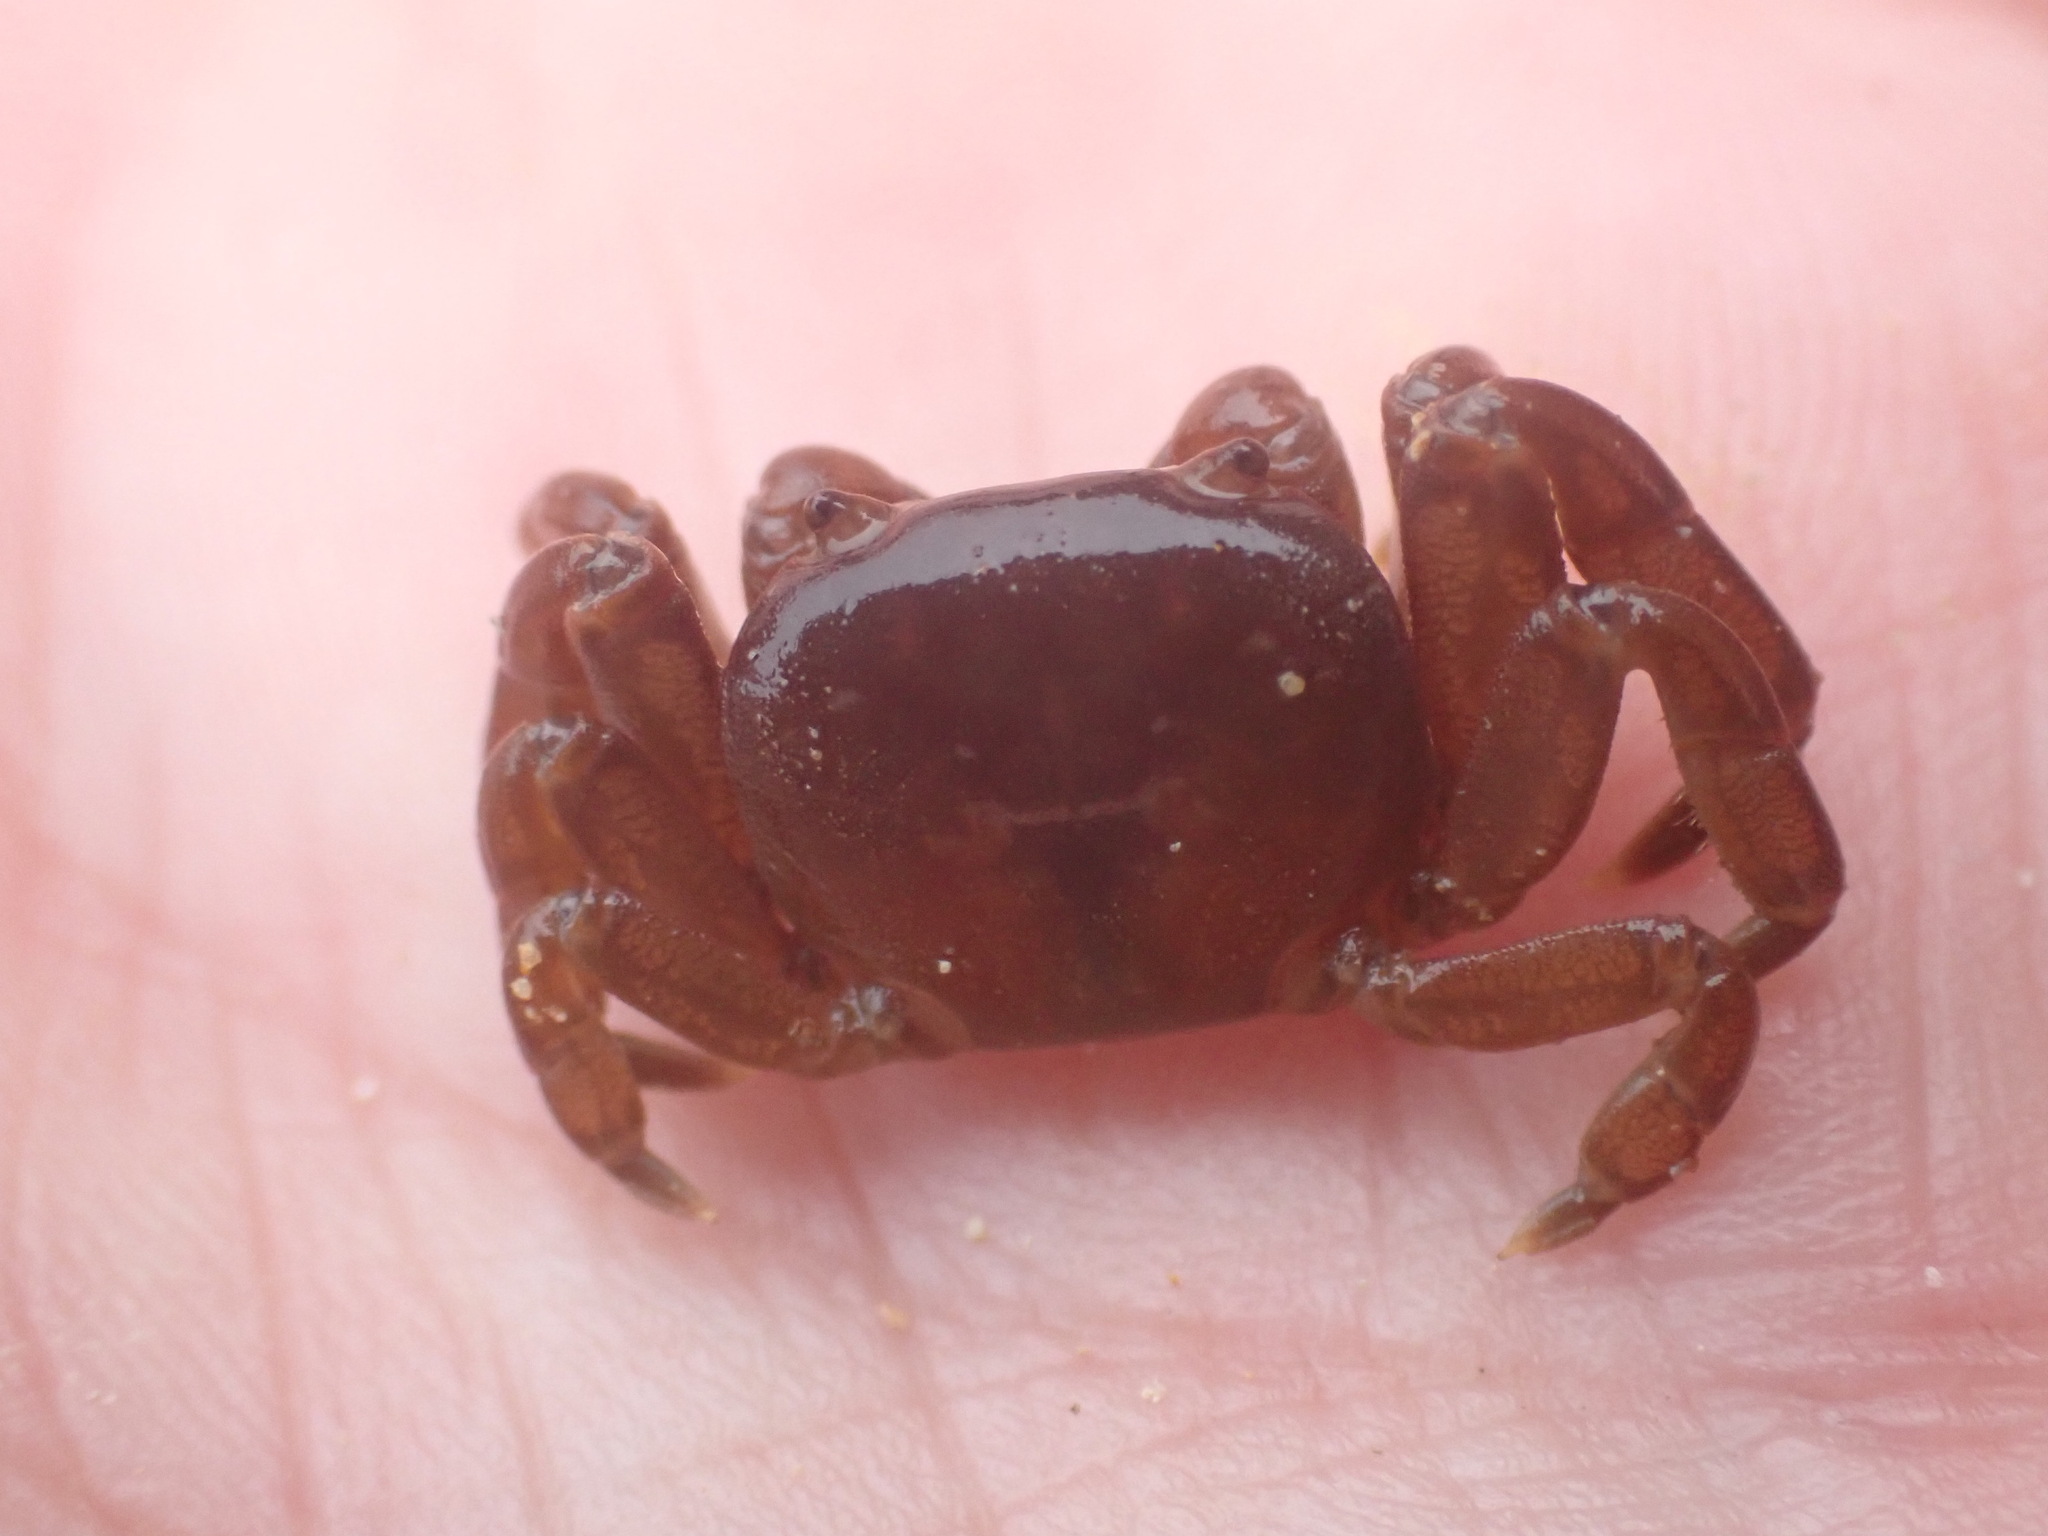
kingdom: Animalia
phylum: Arthropoda
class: Malacostraca
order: Decapoda
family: Varunidae
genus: Cyclograpsus
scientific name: Cyclograpsus insularum
